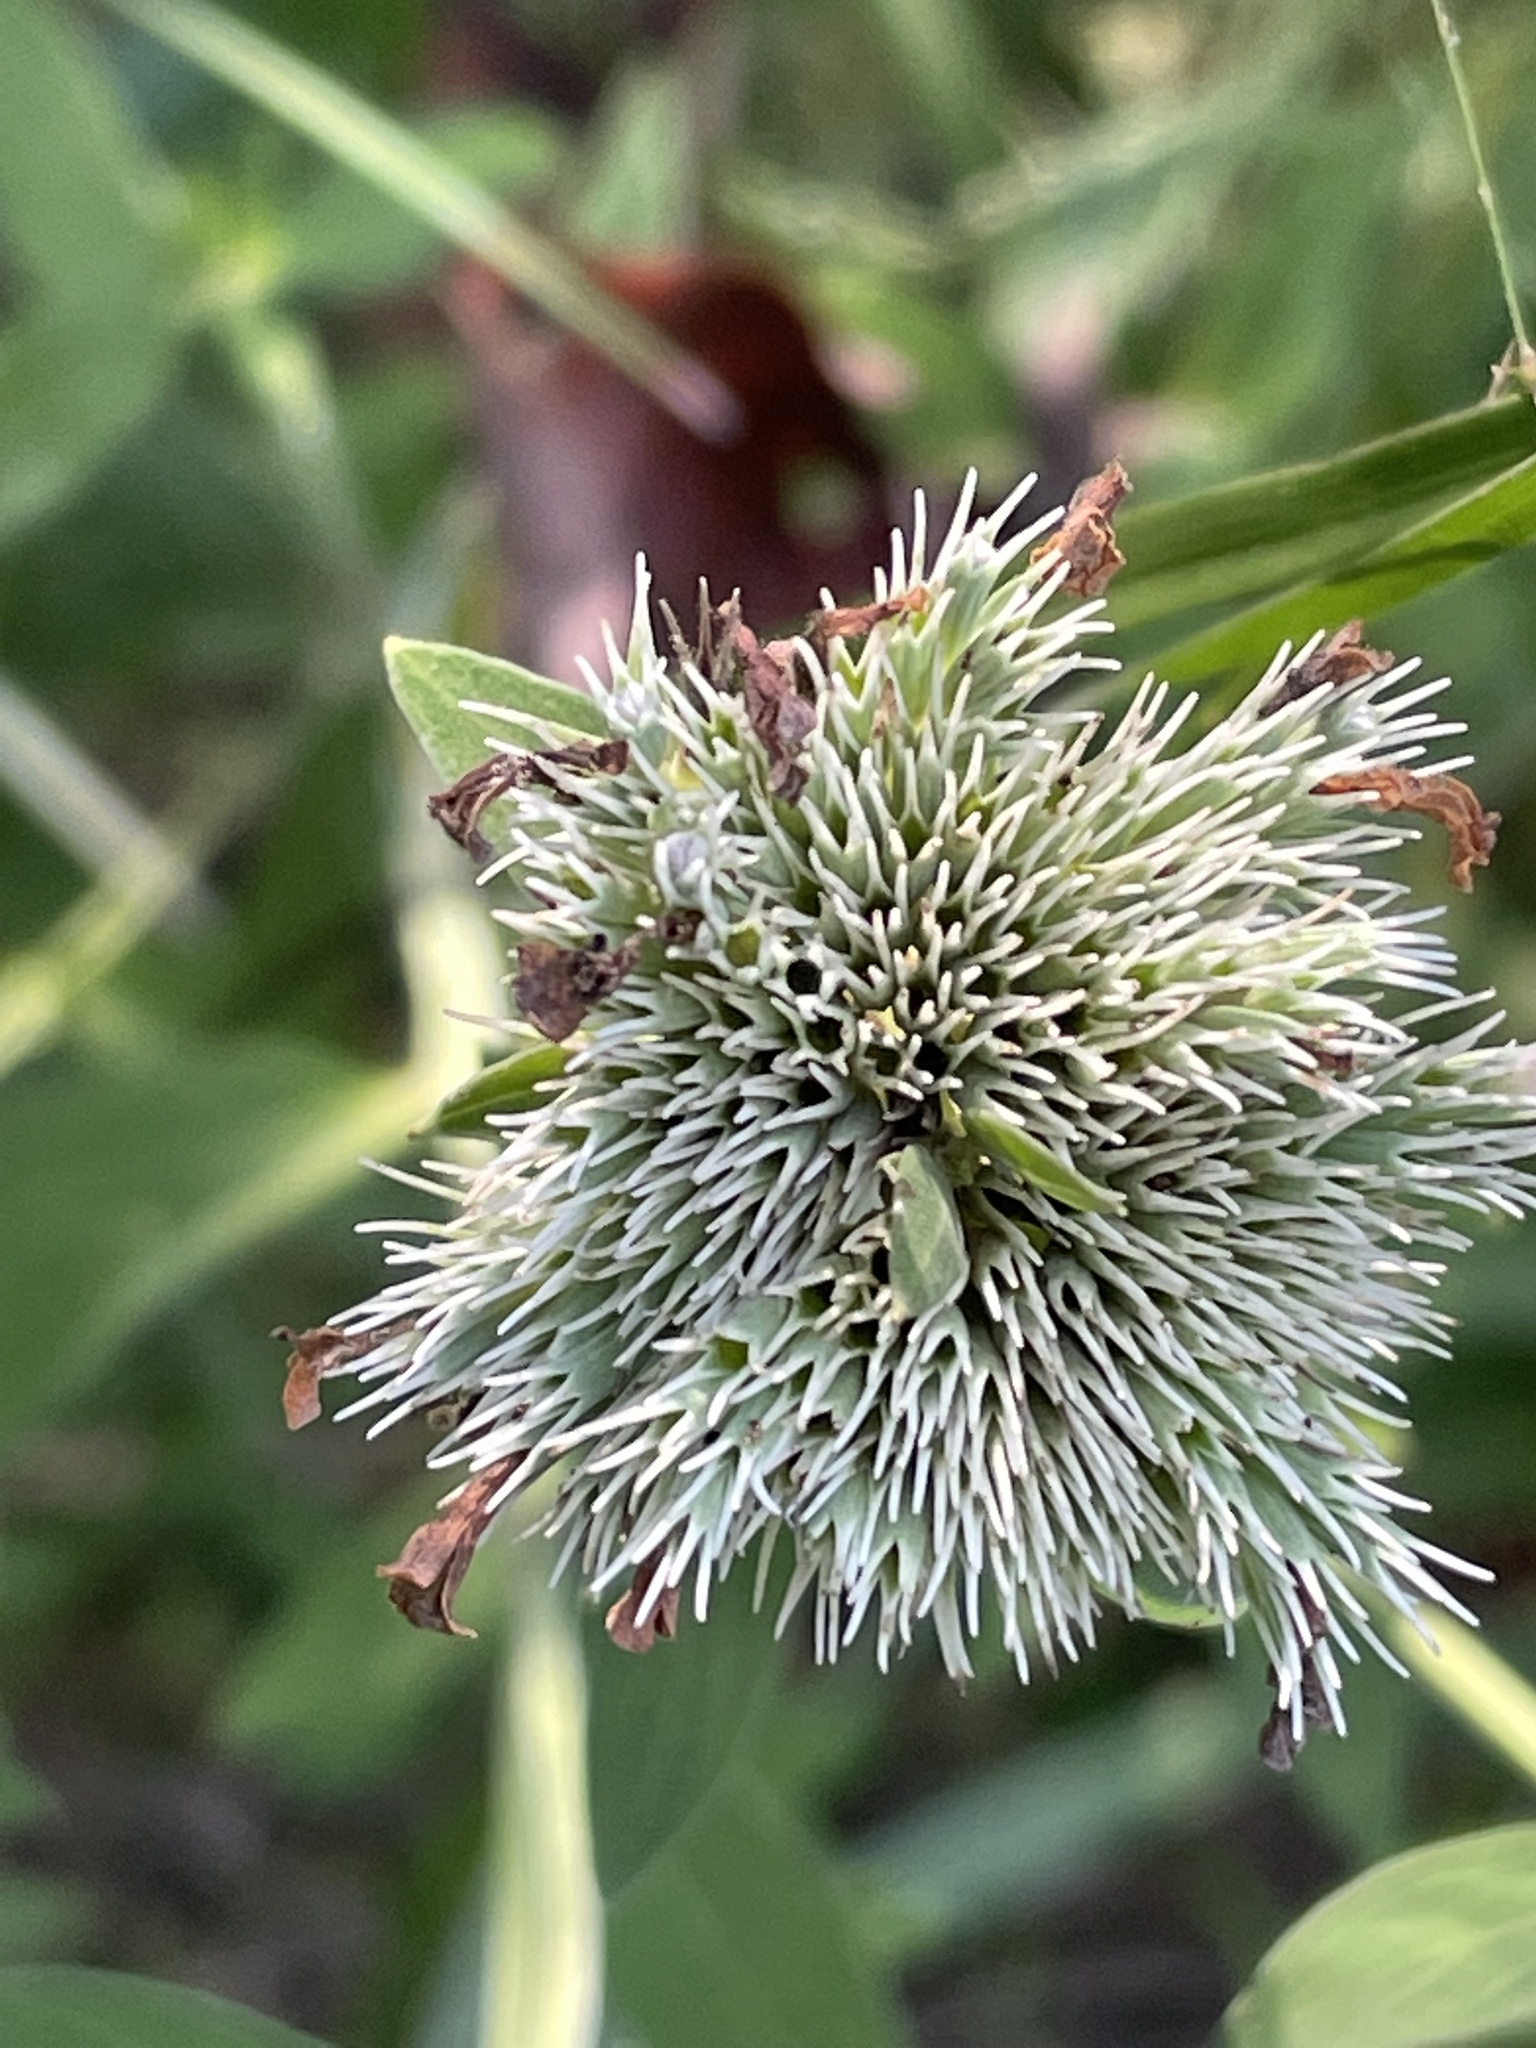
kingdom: Plantae
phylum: Tracheophyta
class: Magnoliopsida
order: Lamiales
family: Lamiaceae
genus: Pycnanthemum
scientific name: Pycnanthemum flexuosum
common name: Appalachian mountain-mint
